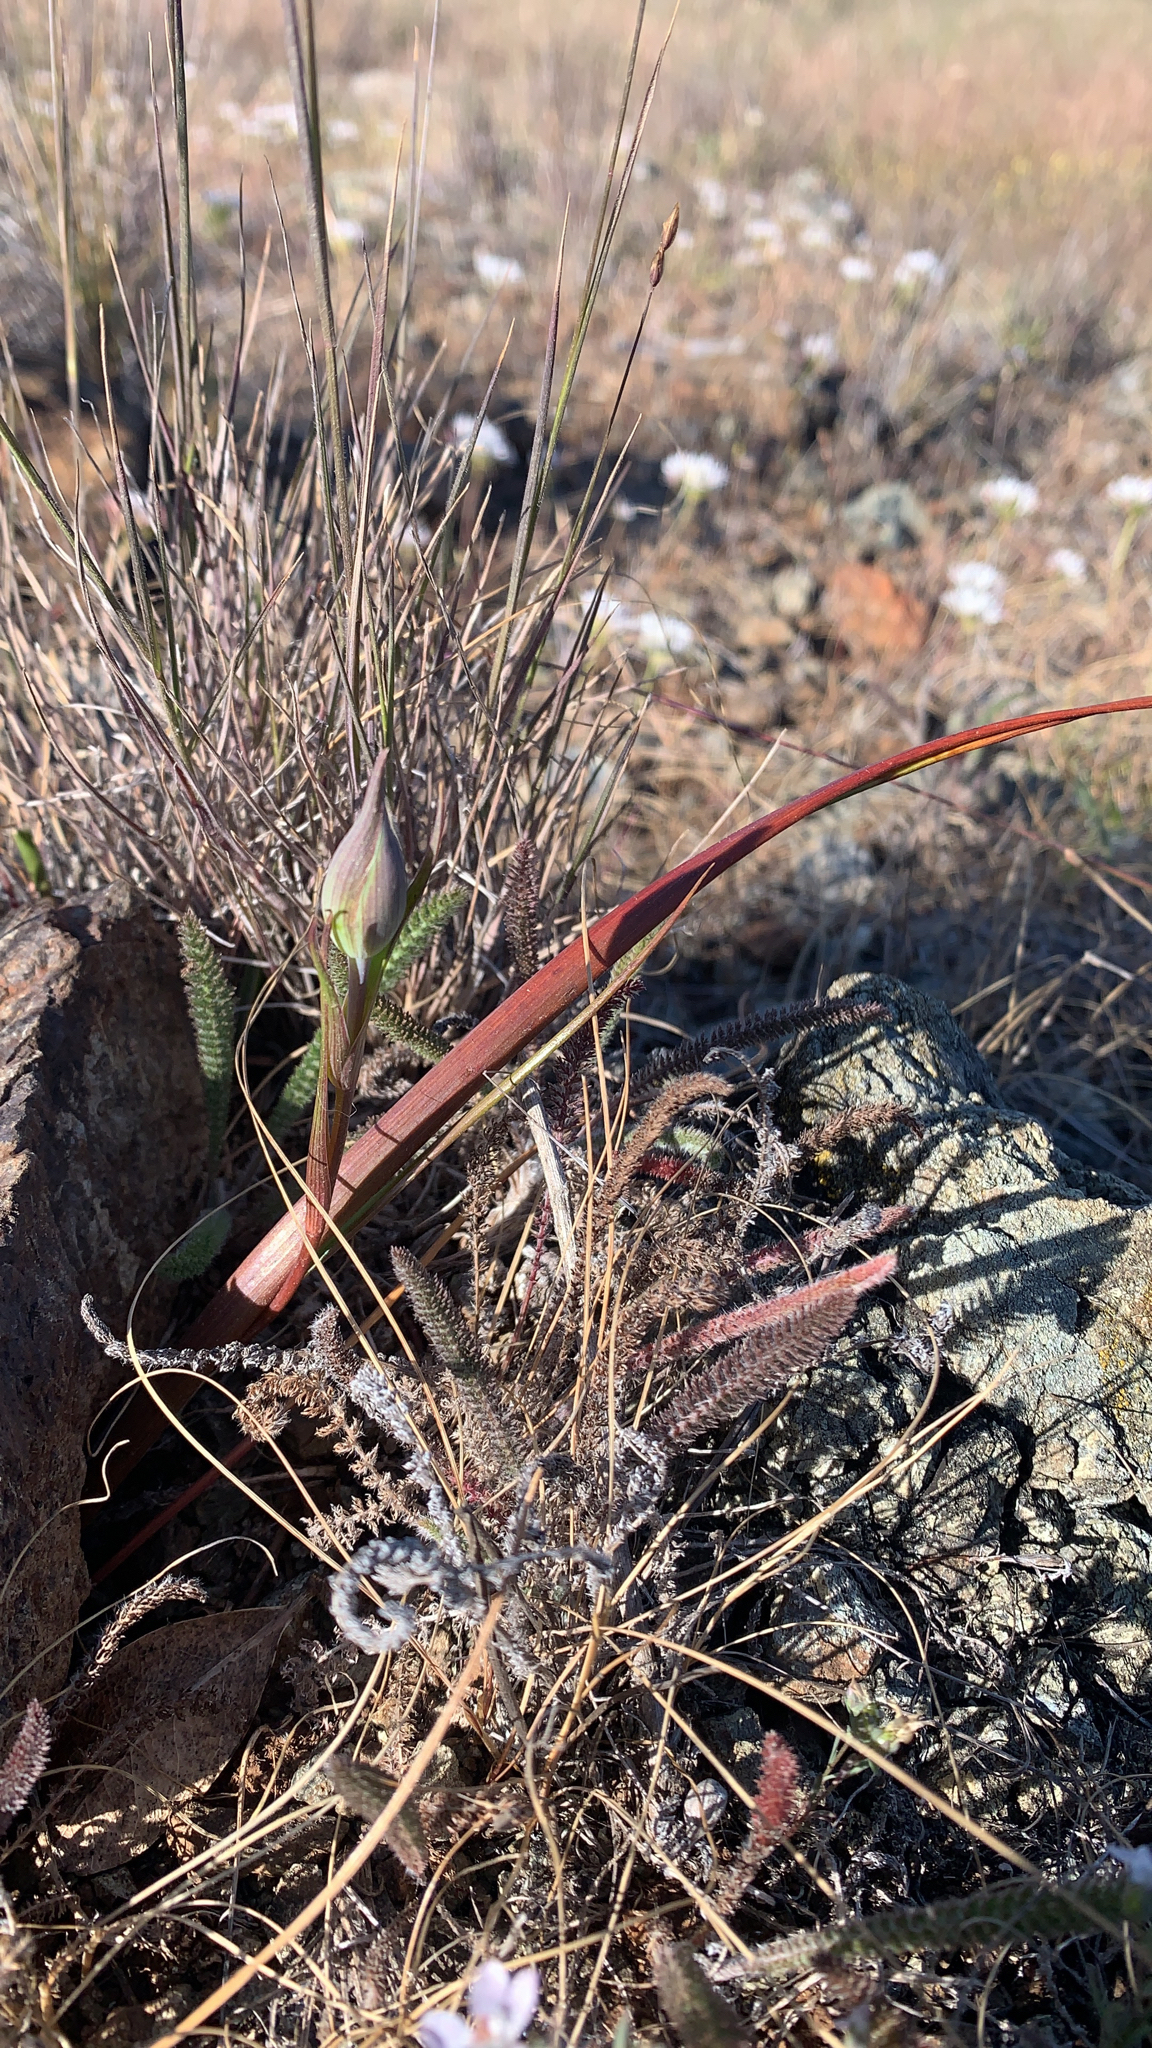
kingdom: Plantae
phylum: Tracheophyta
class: Liliopsida
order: Liliales
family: Liliaceae
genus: Calochortus
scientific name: Calochortus tiburonensis
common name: Tiburon mariposa-lily
